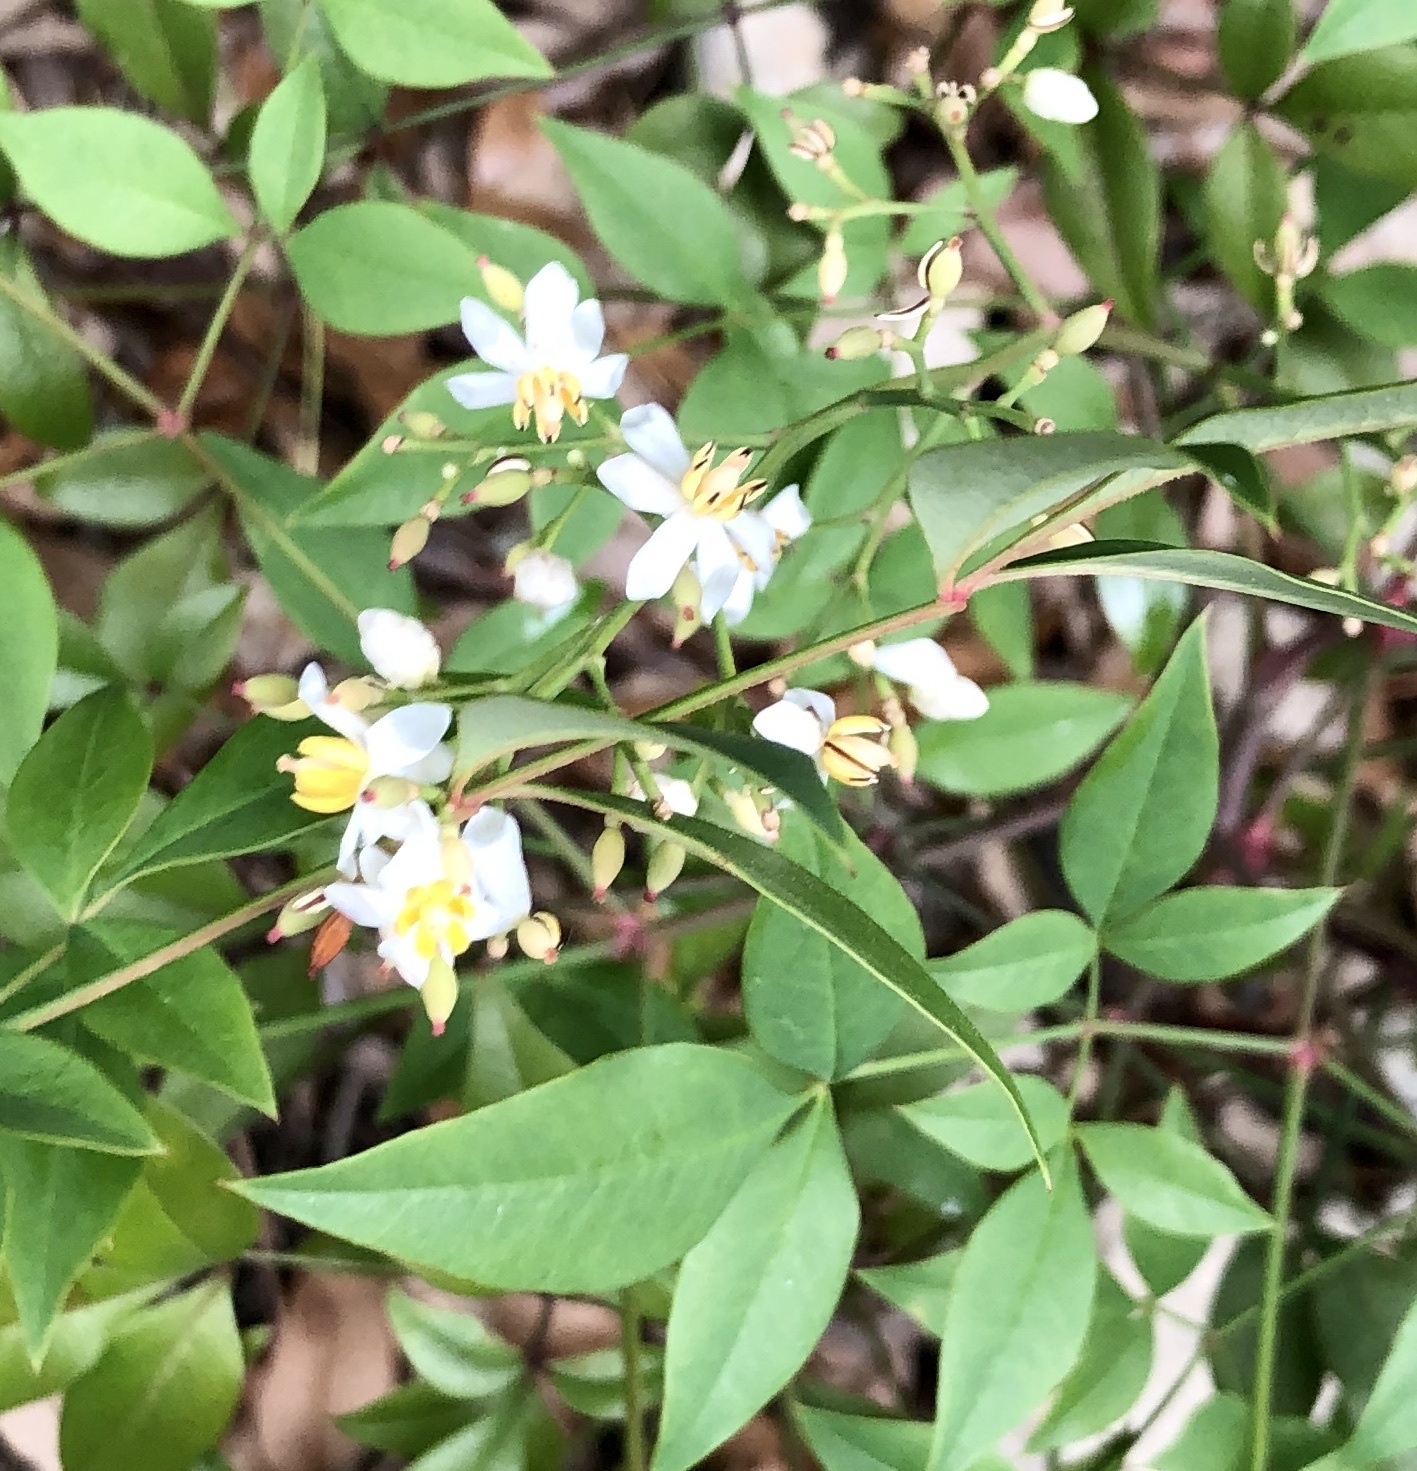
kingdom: Plantae
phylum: Tracheophyta
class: Magnoliopsida
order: Ranunculales
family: Berberidaceae
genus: Nandina
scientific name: Nandina domestica
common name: Sacred bamboo
